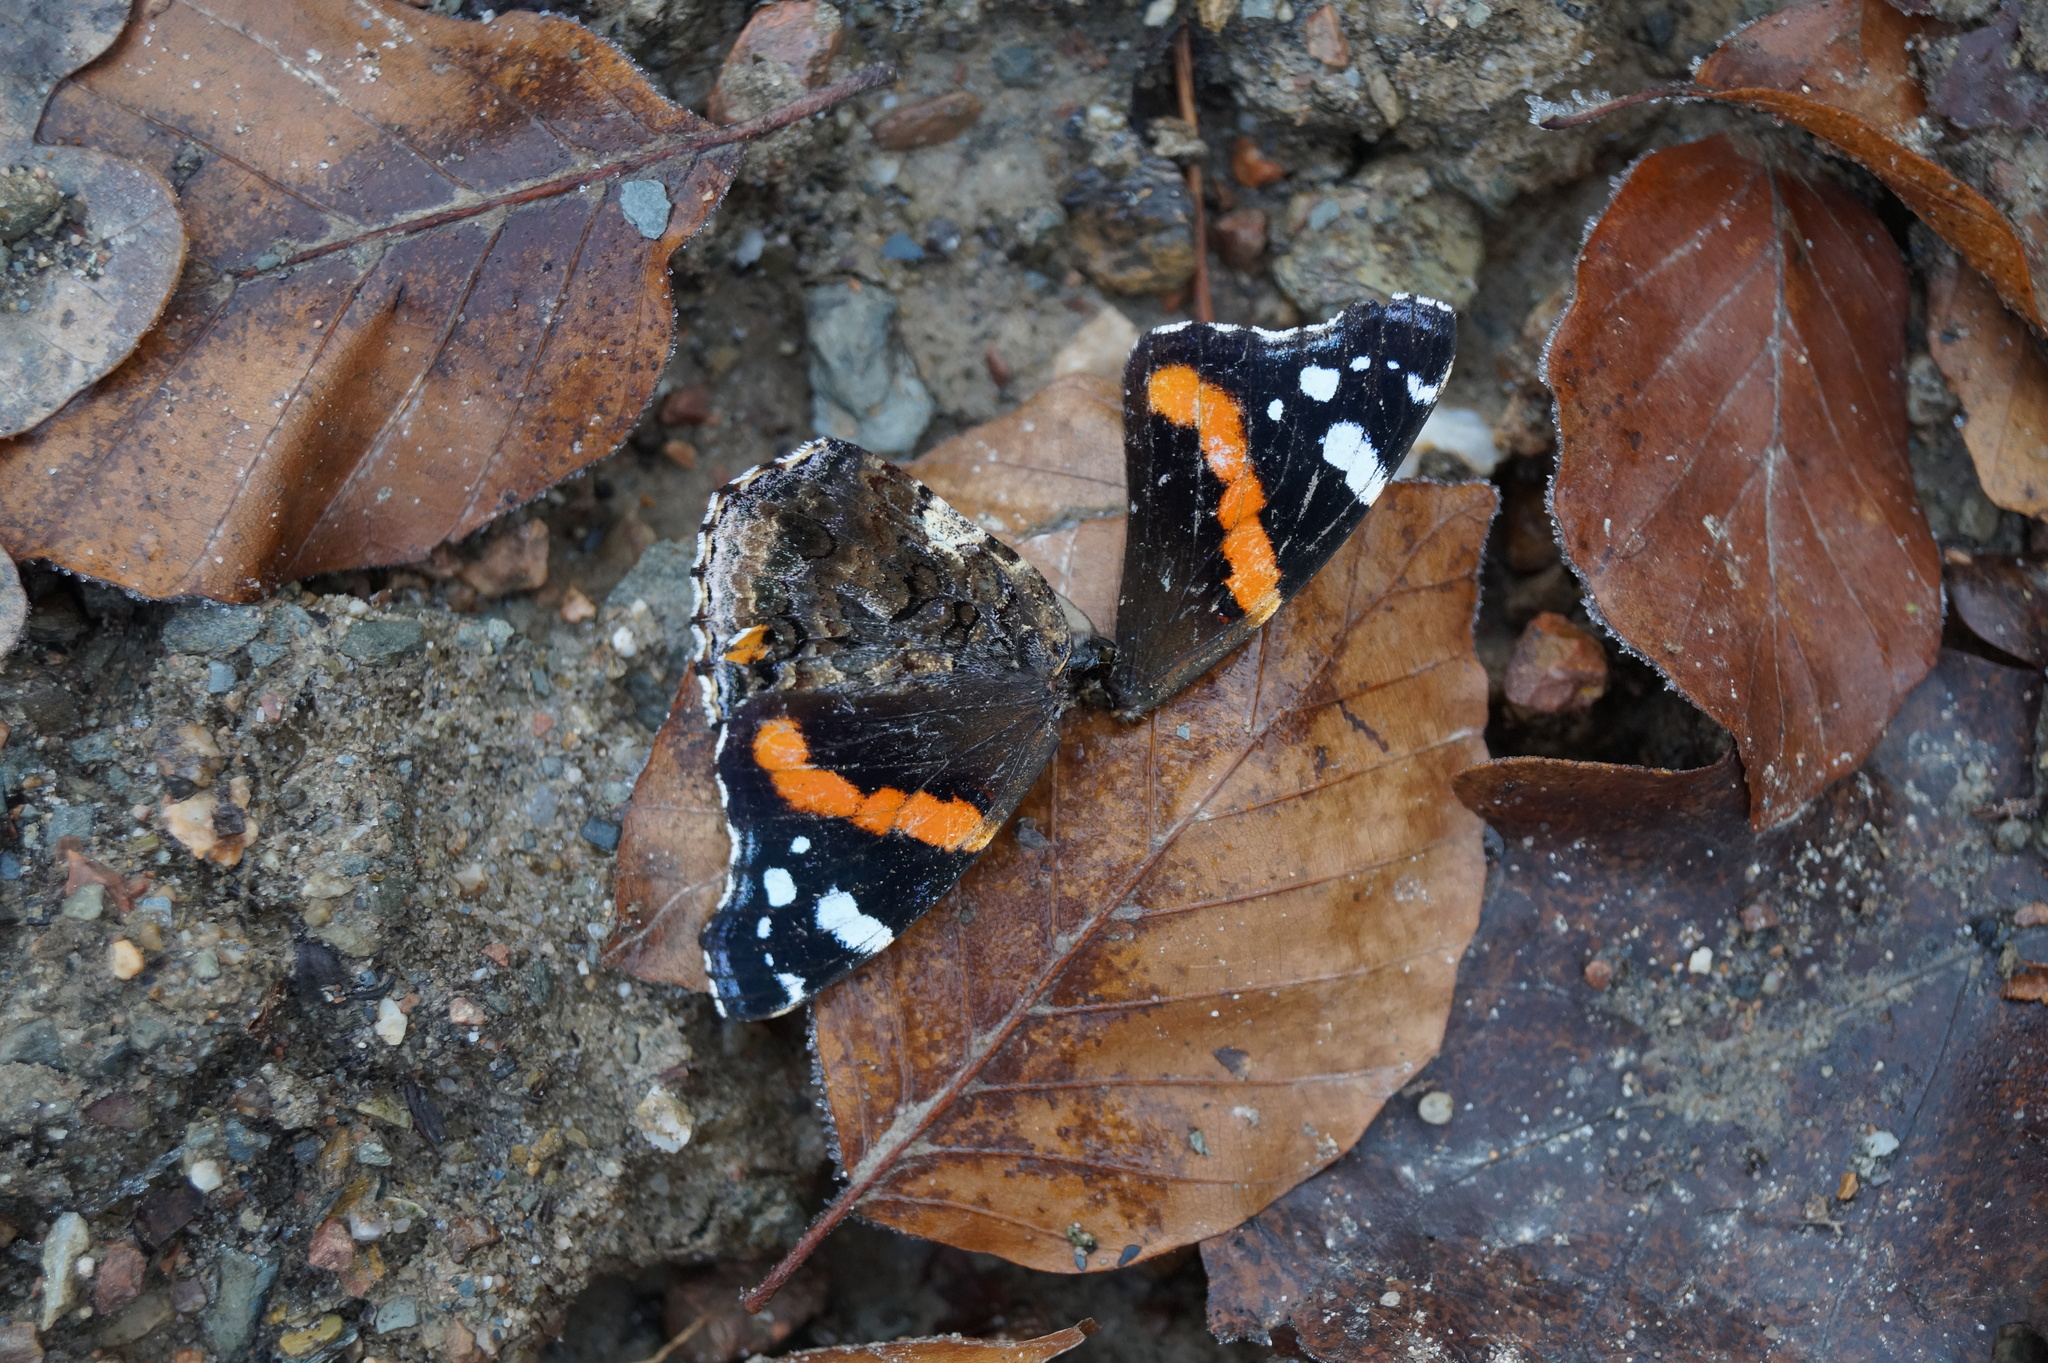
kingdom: Animalia
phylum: Arthropoda
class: Insecta
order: Lepidoptera
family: Nymphalidae
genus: Vanessa
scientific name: Vanessa atalanta
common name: Red admiral
